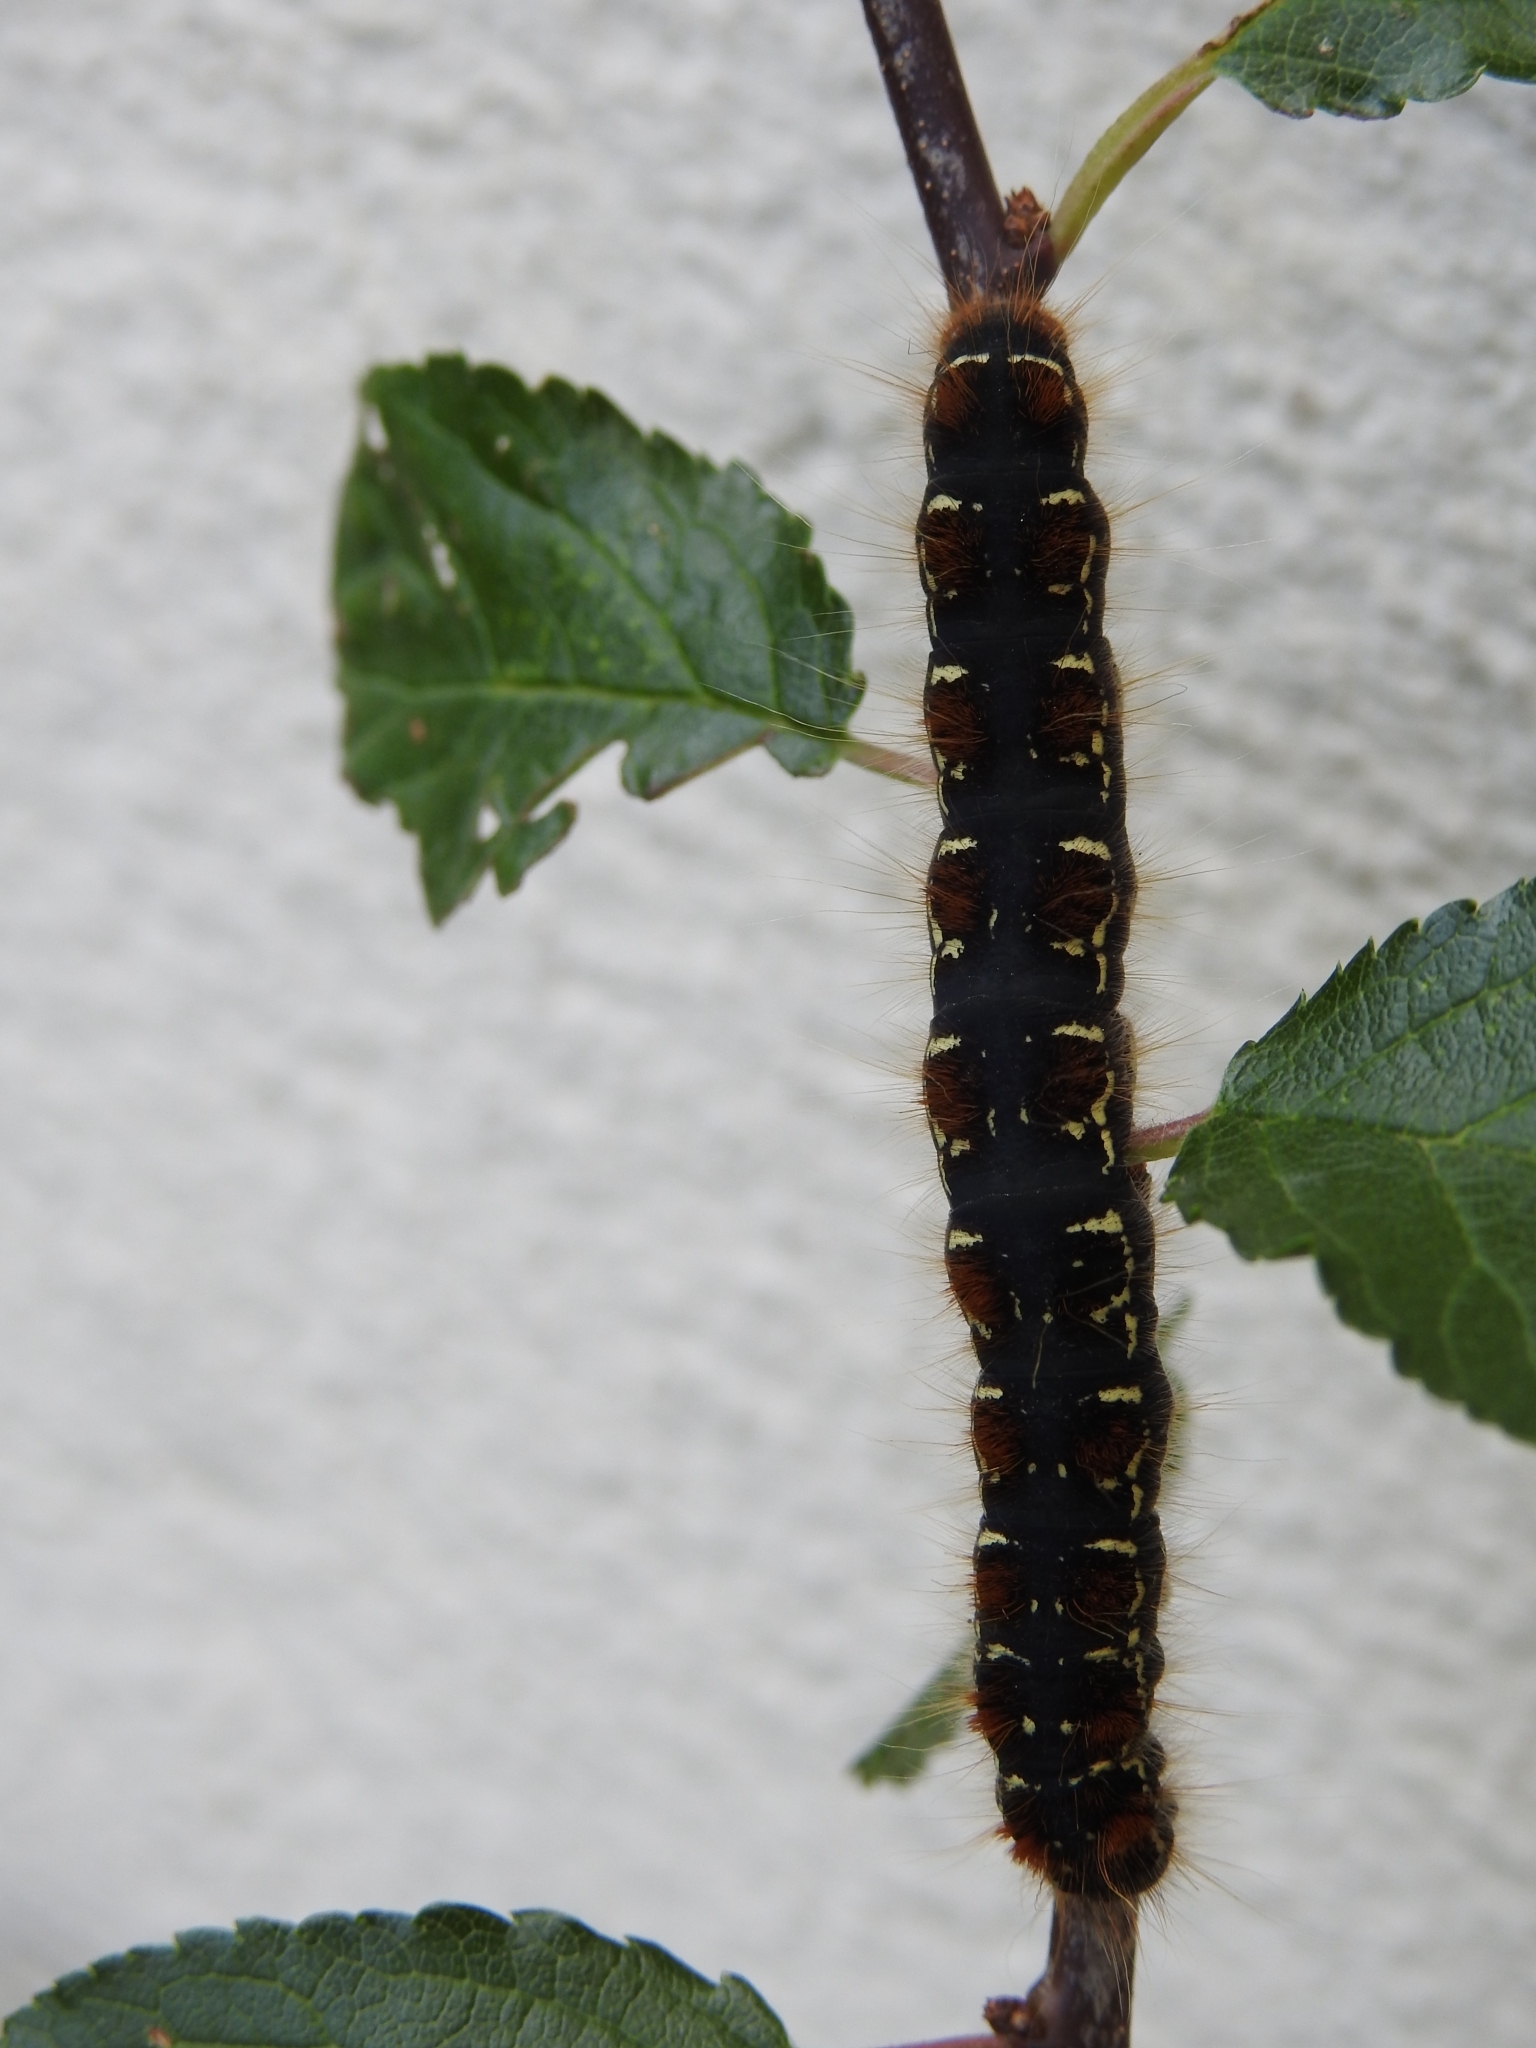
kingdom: Animalia
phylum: Arthropoda
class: Insecta
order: Lepidoptera
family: Lasiocampidae
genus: Eriogaster
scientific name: Eriogaster lanestris
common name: Small eggar
